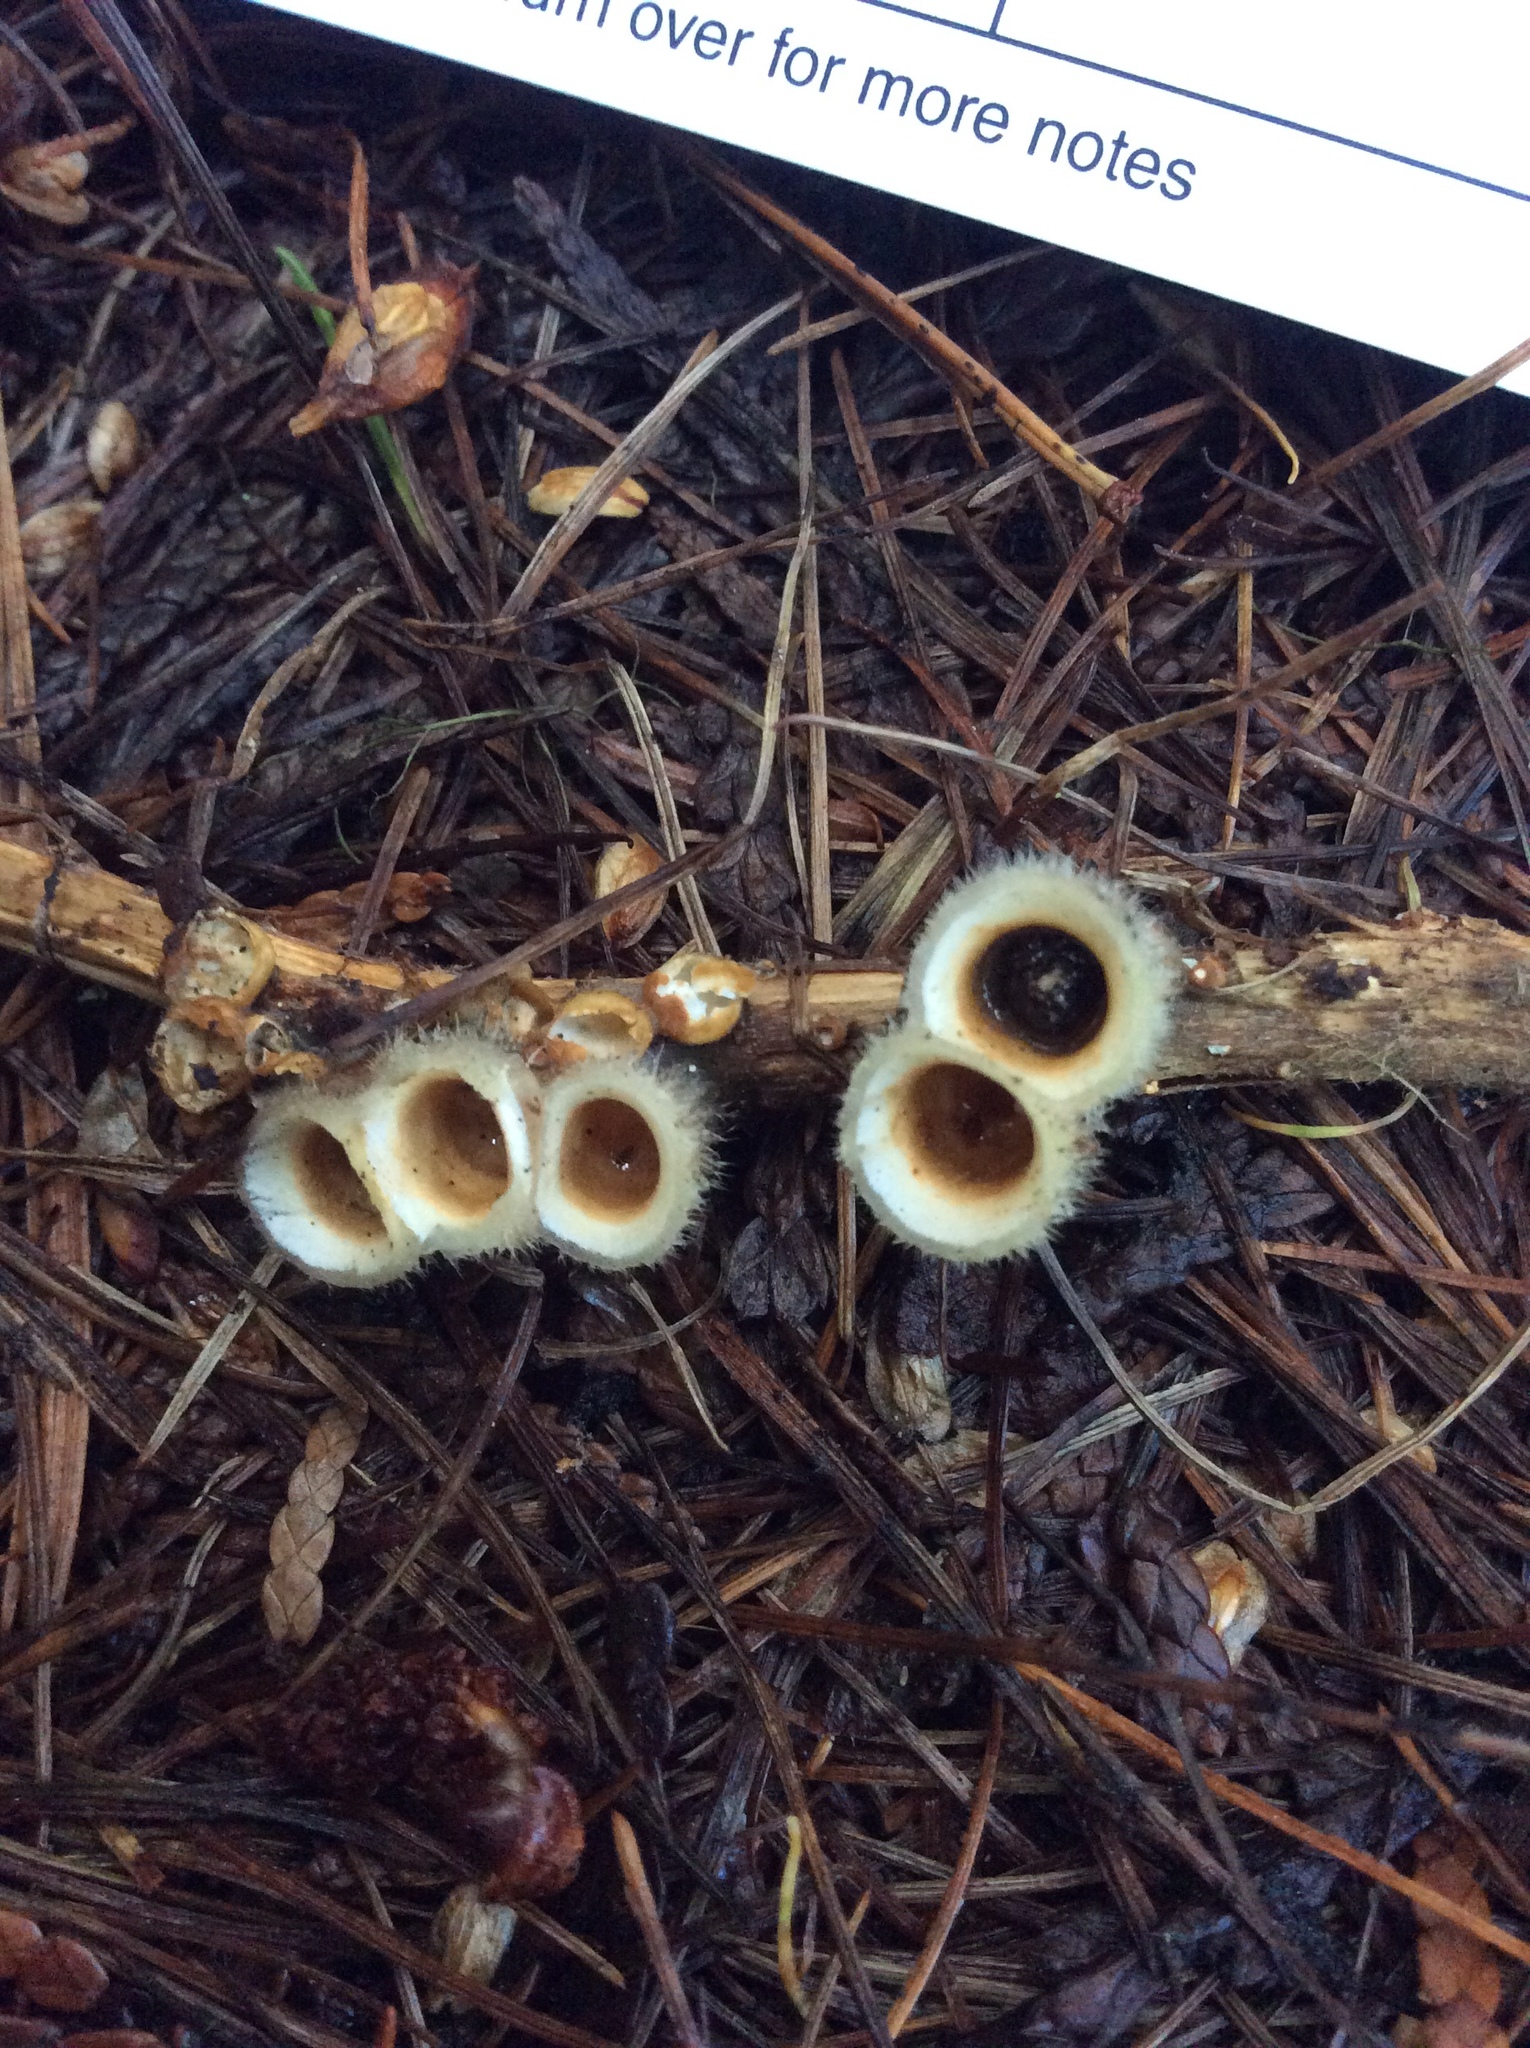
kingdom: Fungi
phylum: Basidiomycota
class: Agaricomycetes
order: Agaricales
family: Agaricaceae
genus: Nidula
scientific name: Nidula niveotomentosa
